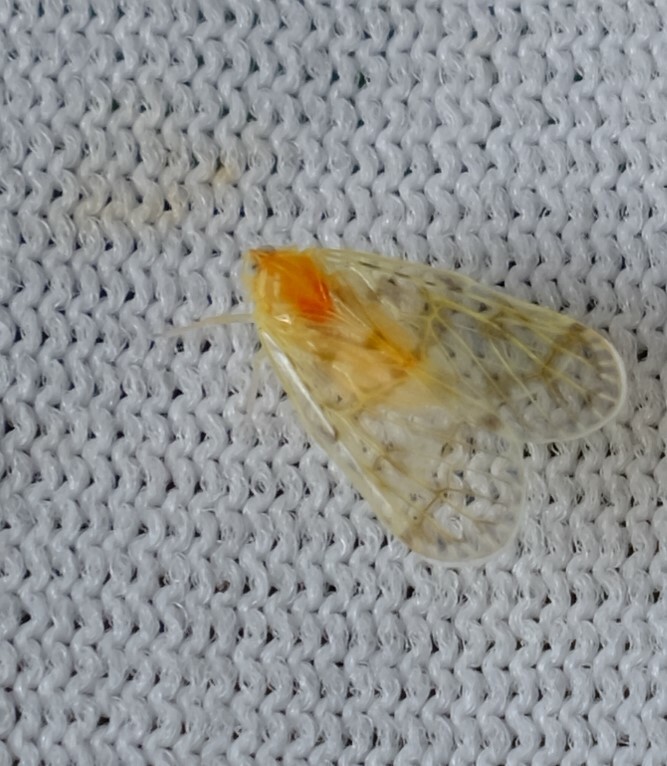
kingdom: Animalia
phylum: Arthropoda
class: Insecta
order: Hemiptera
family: Derbidae
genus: Saccharodite
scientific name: Saccharodite chrysonoe
